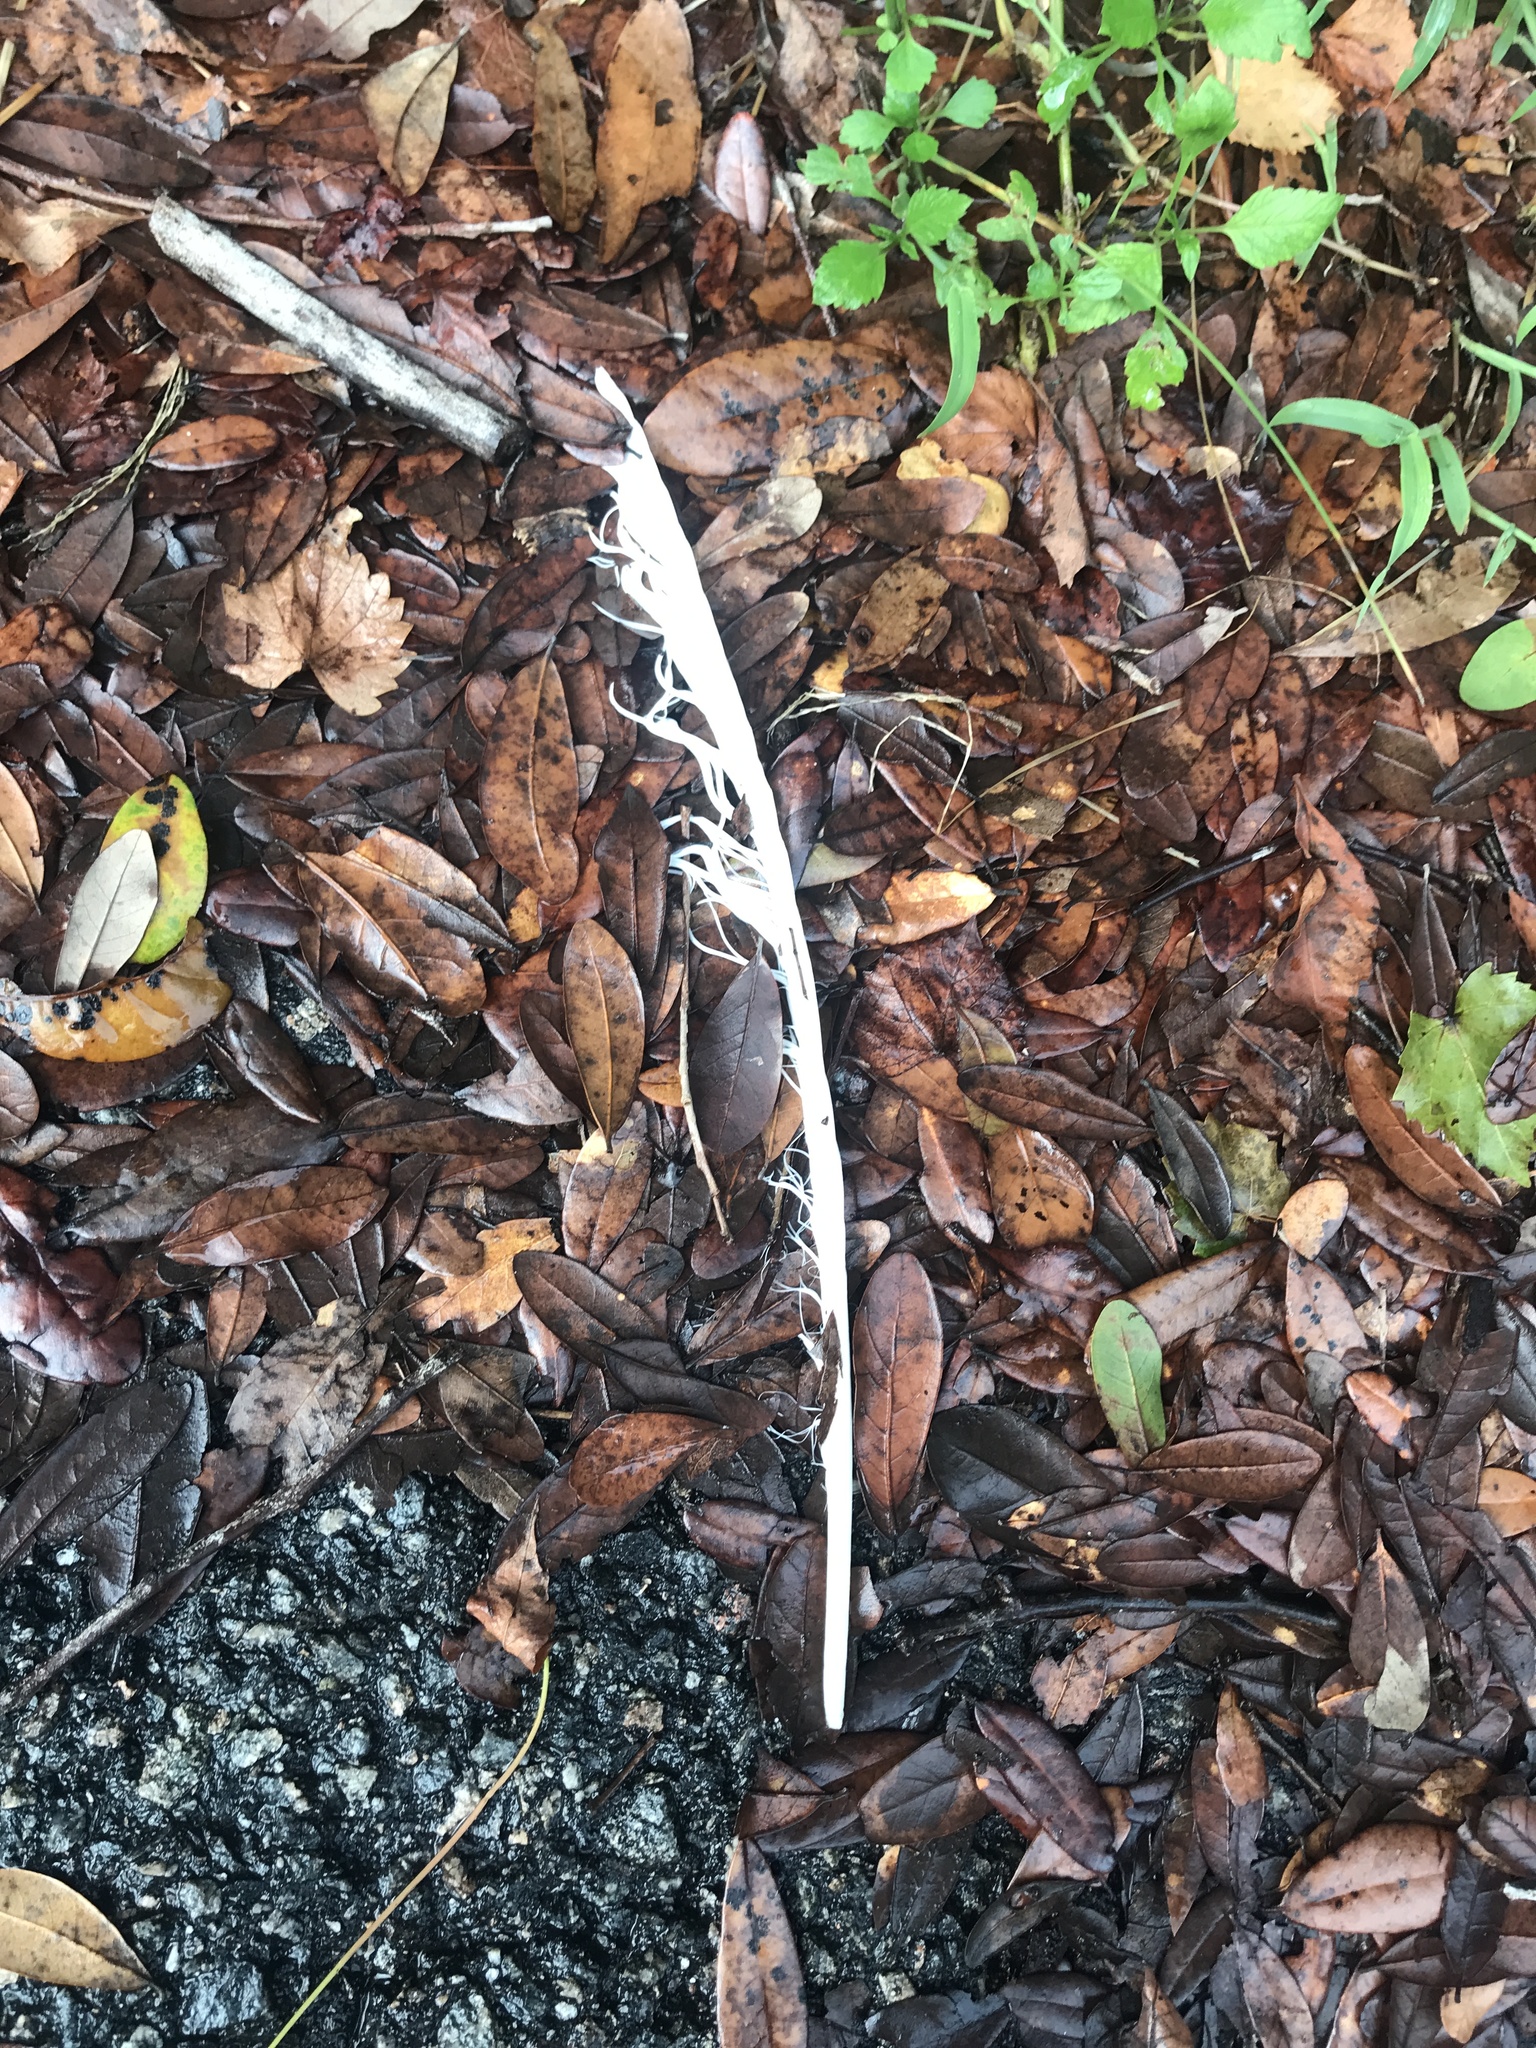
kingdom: Animalia
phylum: Chordata
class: Aves
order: Pelecaniformes
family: Ardeidae
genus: Ardea
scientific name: Ardea alba
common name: Great egret
